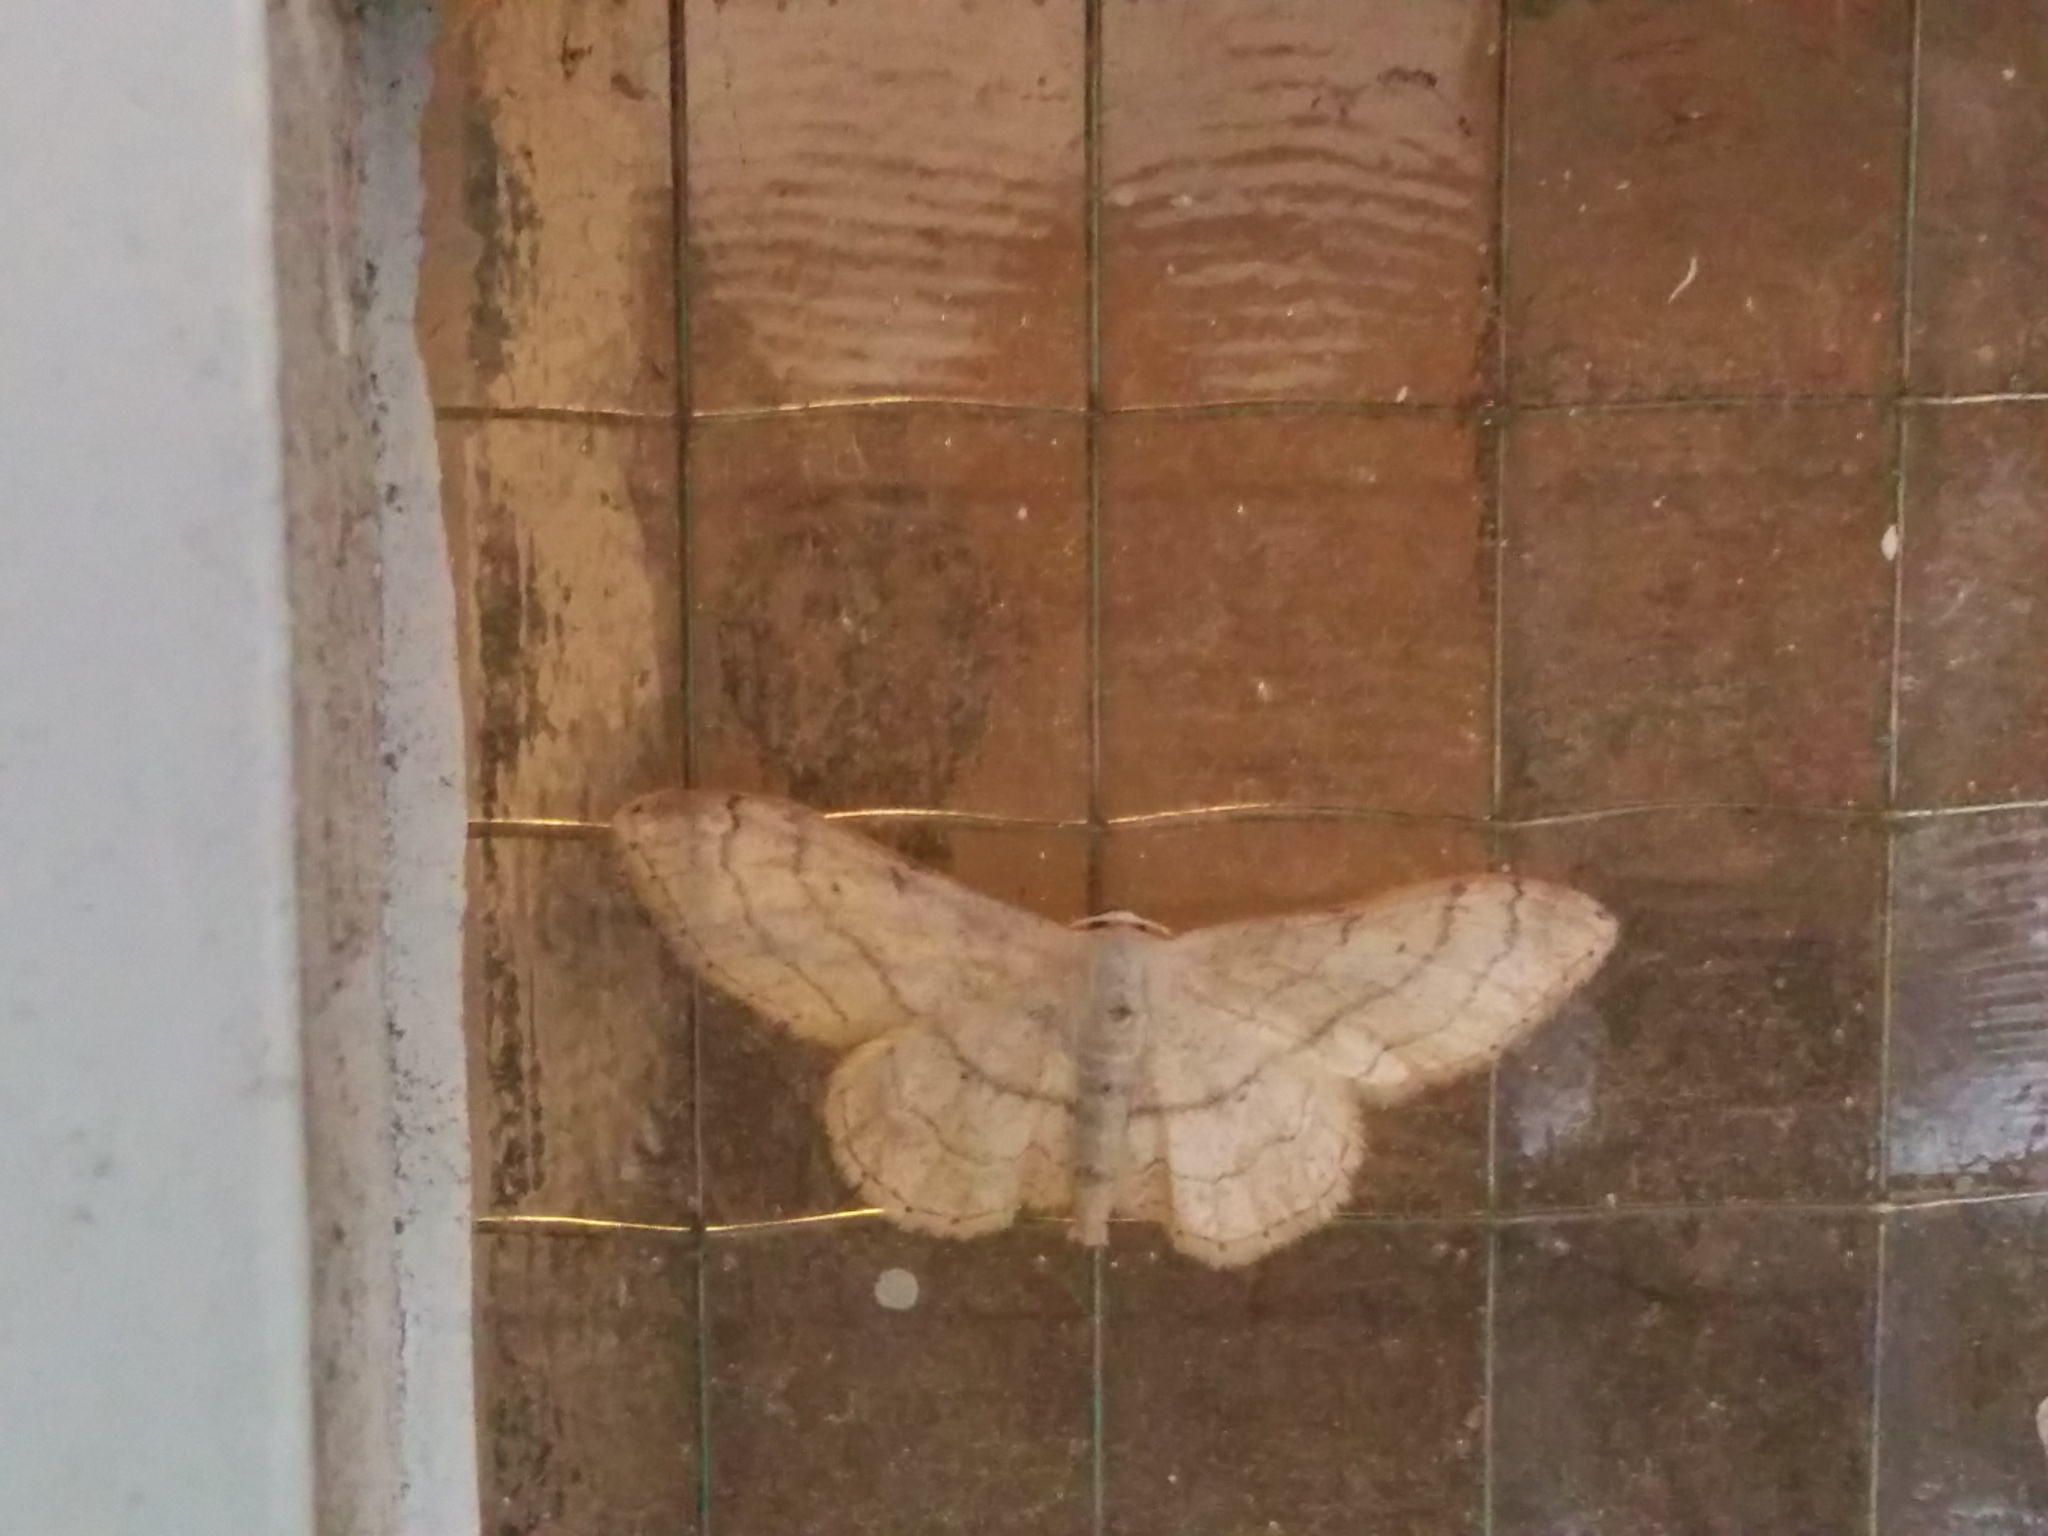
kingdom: Animalia
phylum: Arthropoda
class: Insecta
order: Lepidoptera
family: Geometridae
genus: Idaea
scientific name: Idaea aversata
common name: Riband wave
